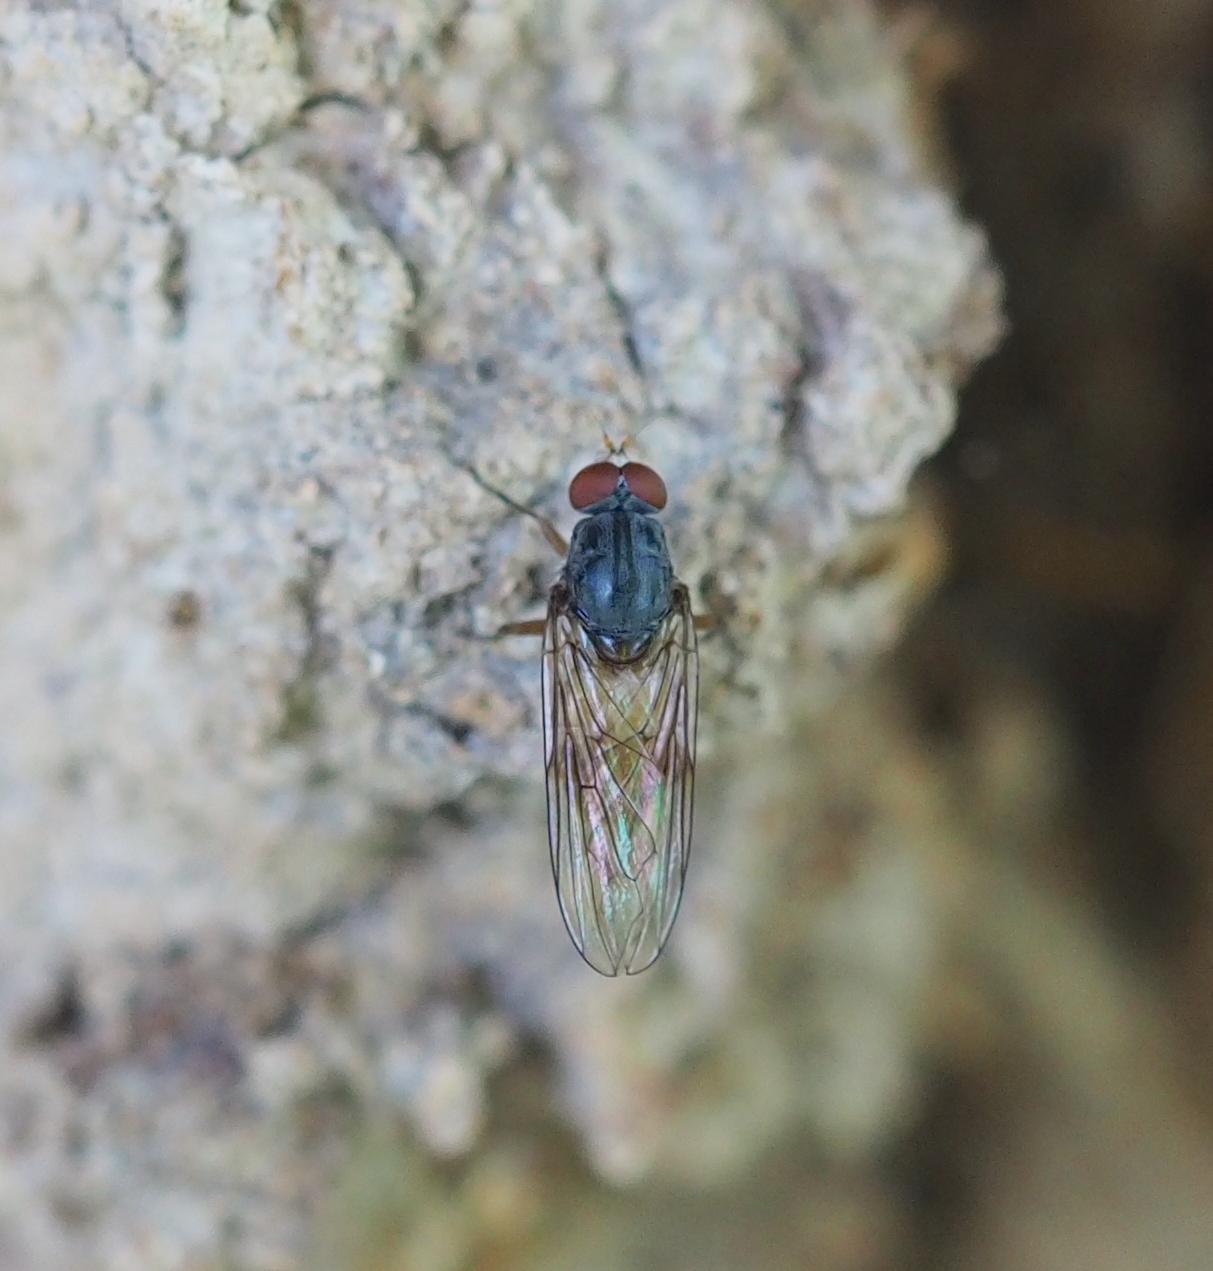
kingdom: Animalia
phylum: Arthropoda
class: Insecta
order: Diptera
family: Syrphidae
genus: Brachyopa
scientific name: Brachyopa insensilis
